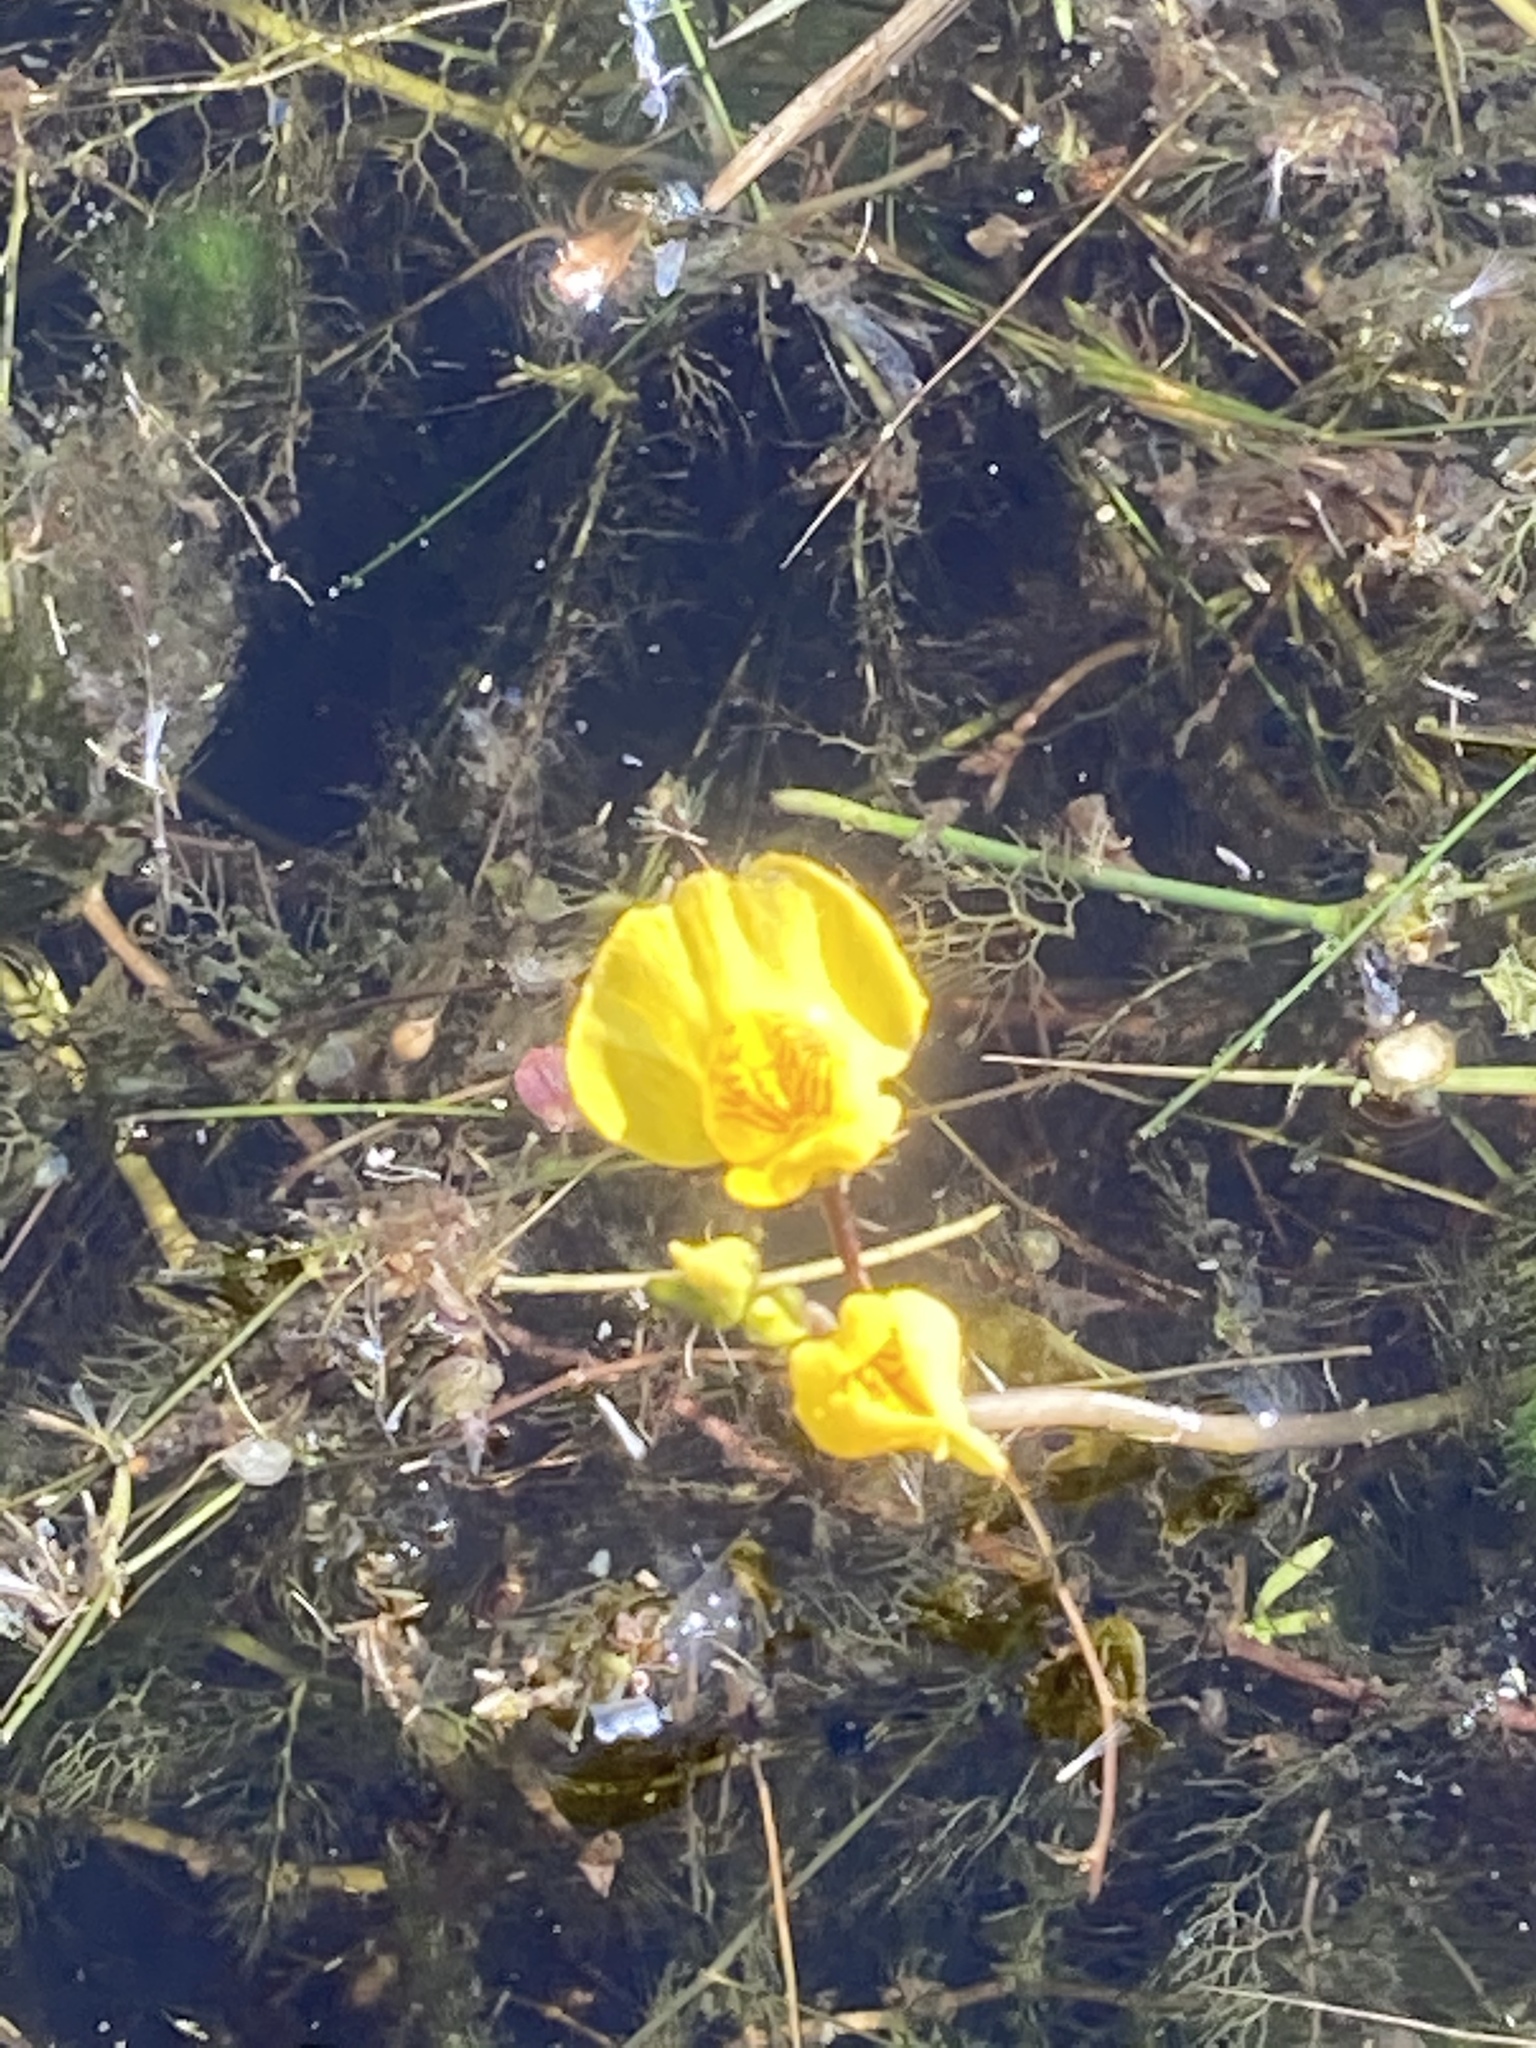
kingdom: Plantae
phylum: Tracheophyta
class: Magnoliopsida
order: Lamiales
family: Lentibulariaceae
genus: Utricularia
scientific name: Utricularia australis
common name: Bladderwort
